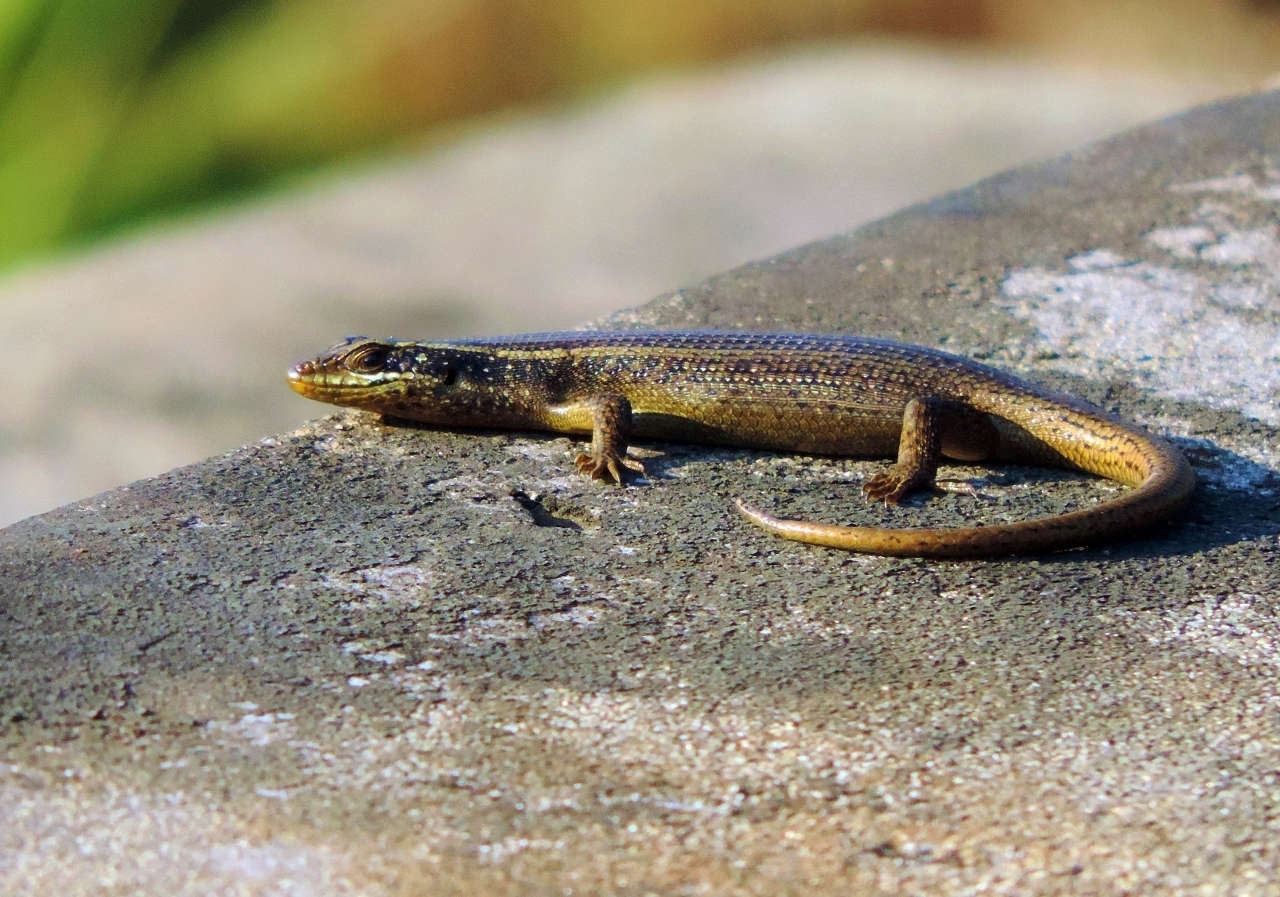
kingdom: Animalia
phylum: Chordata
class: Squamata
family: Scincidae
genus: Trachylepis
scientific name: Trachylepis punctatissima
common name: Montane speckled skink
